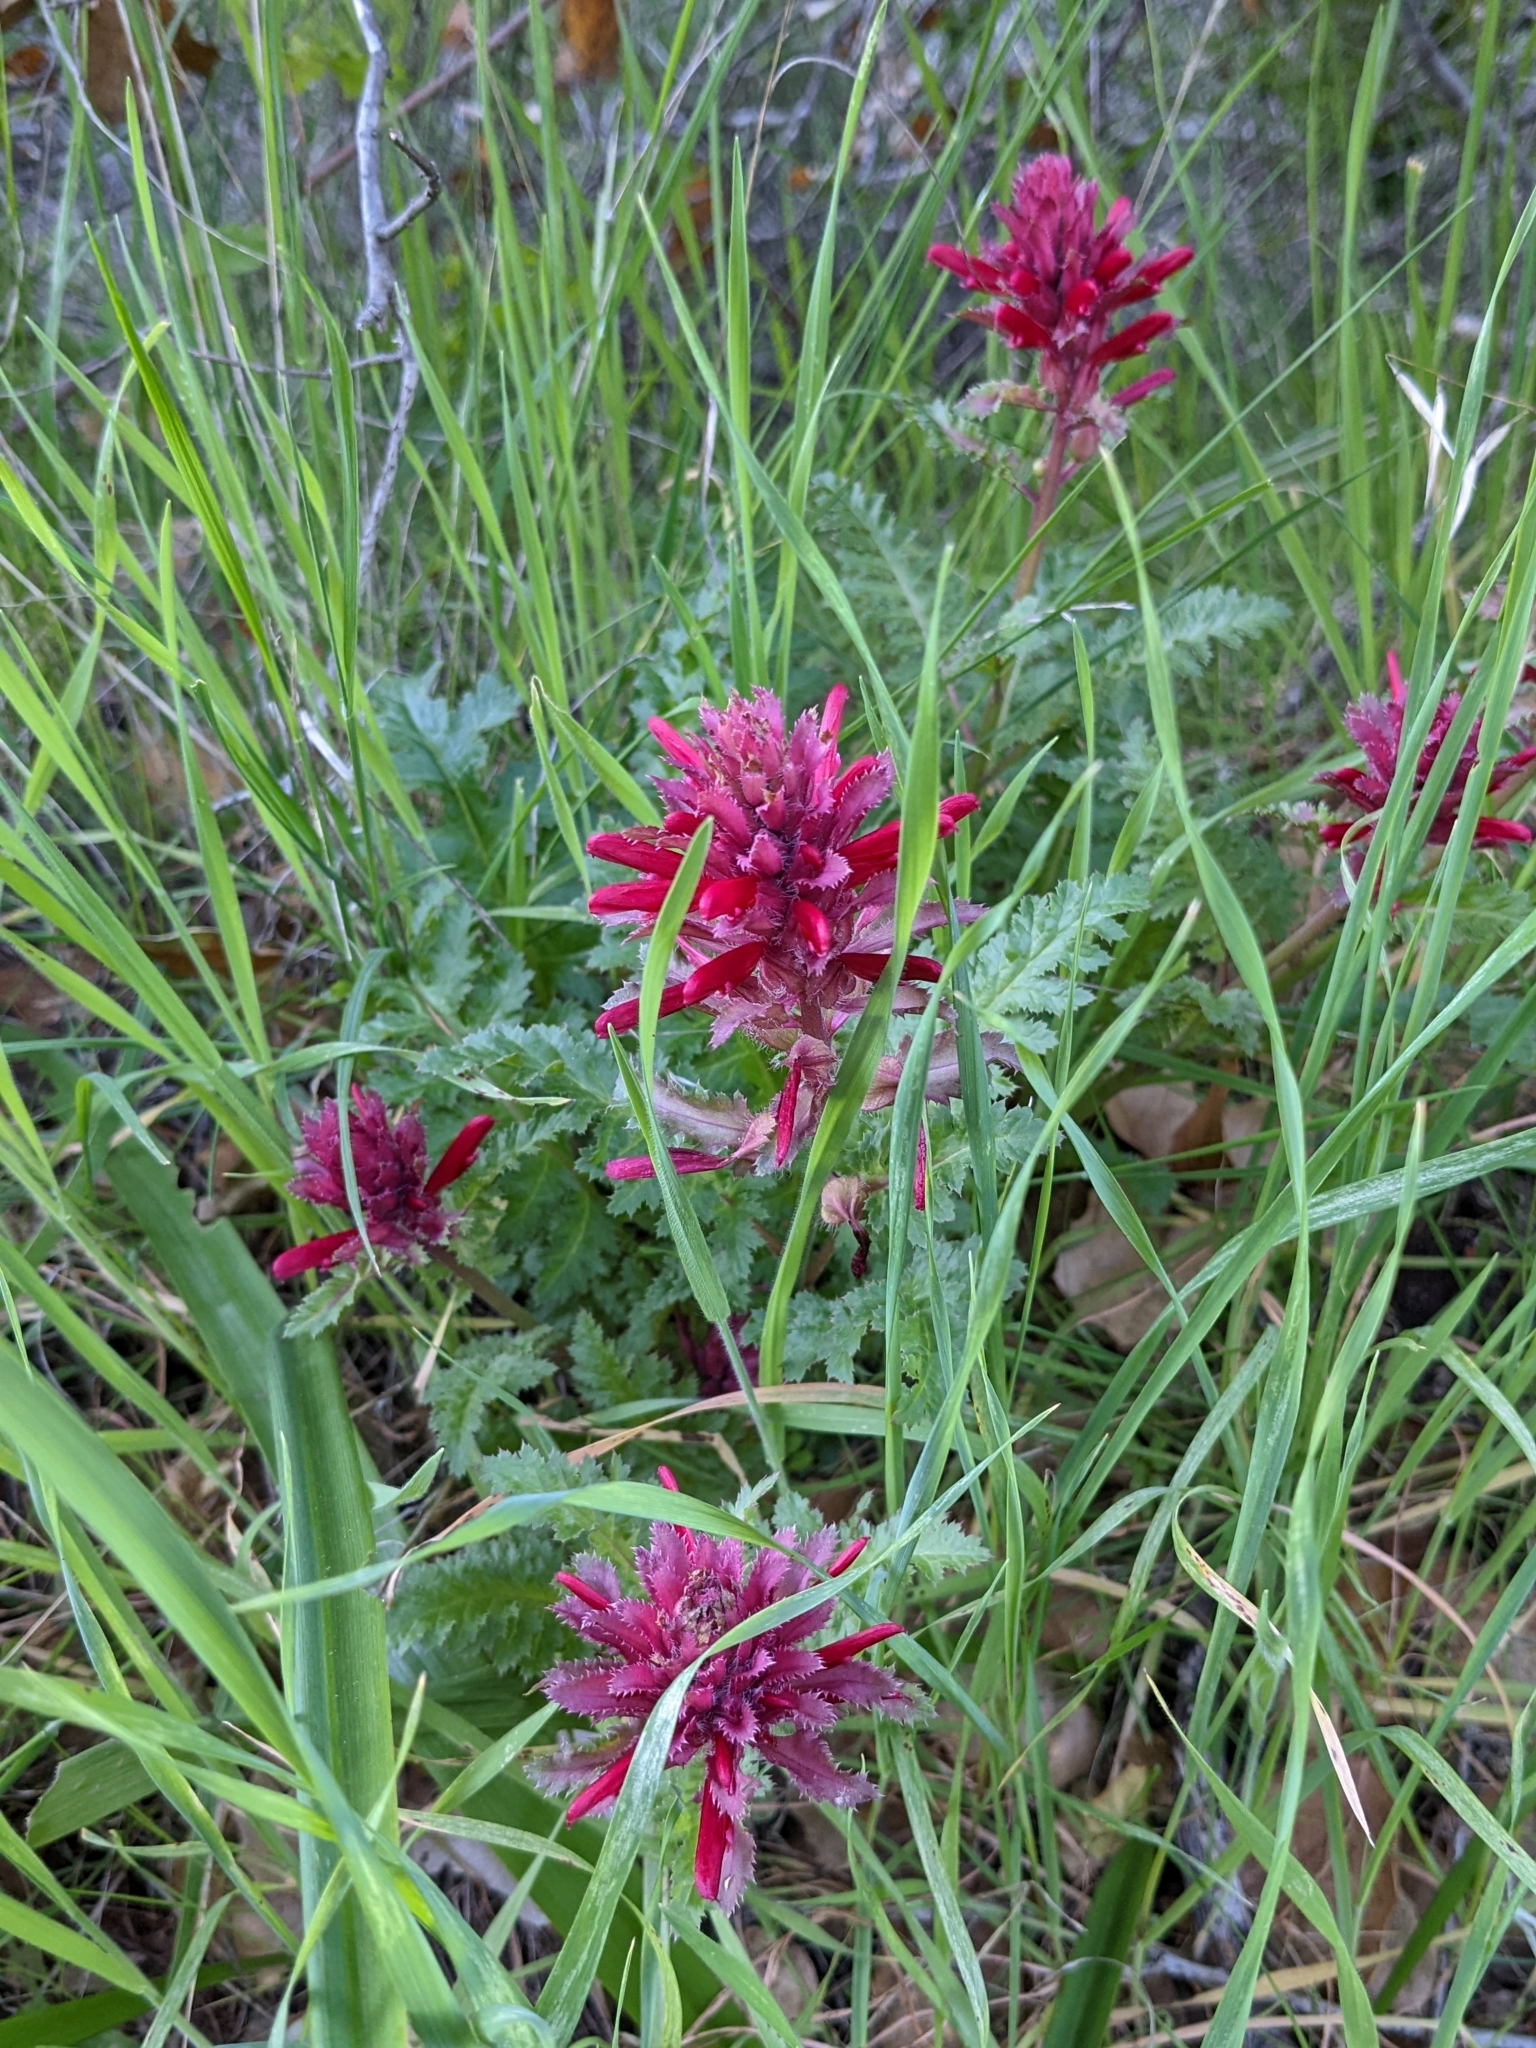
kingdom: Plantae
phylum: Tracheophyta
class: Magnoliopsida
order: Lamiales
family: Orobanchaceae
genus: Pedicularis
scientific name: Pedicularis densiflora
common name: Indian warrior
